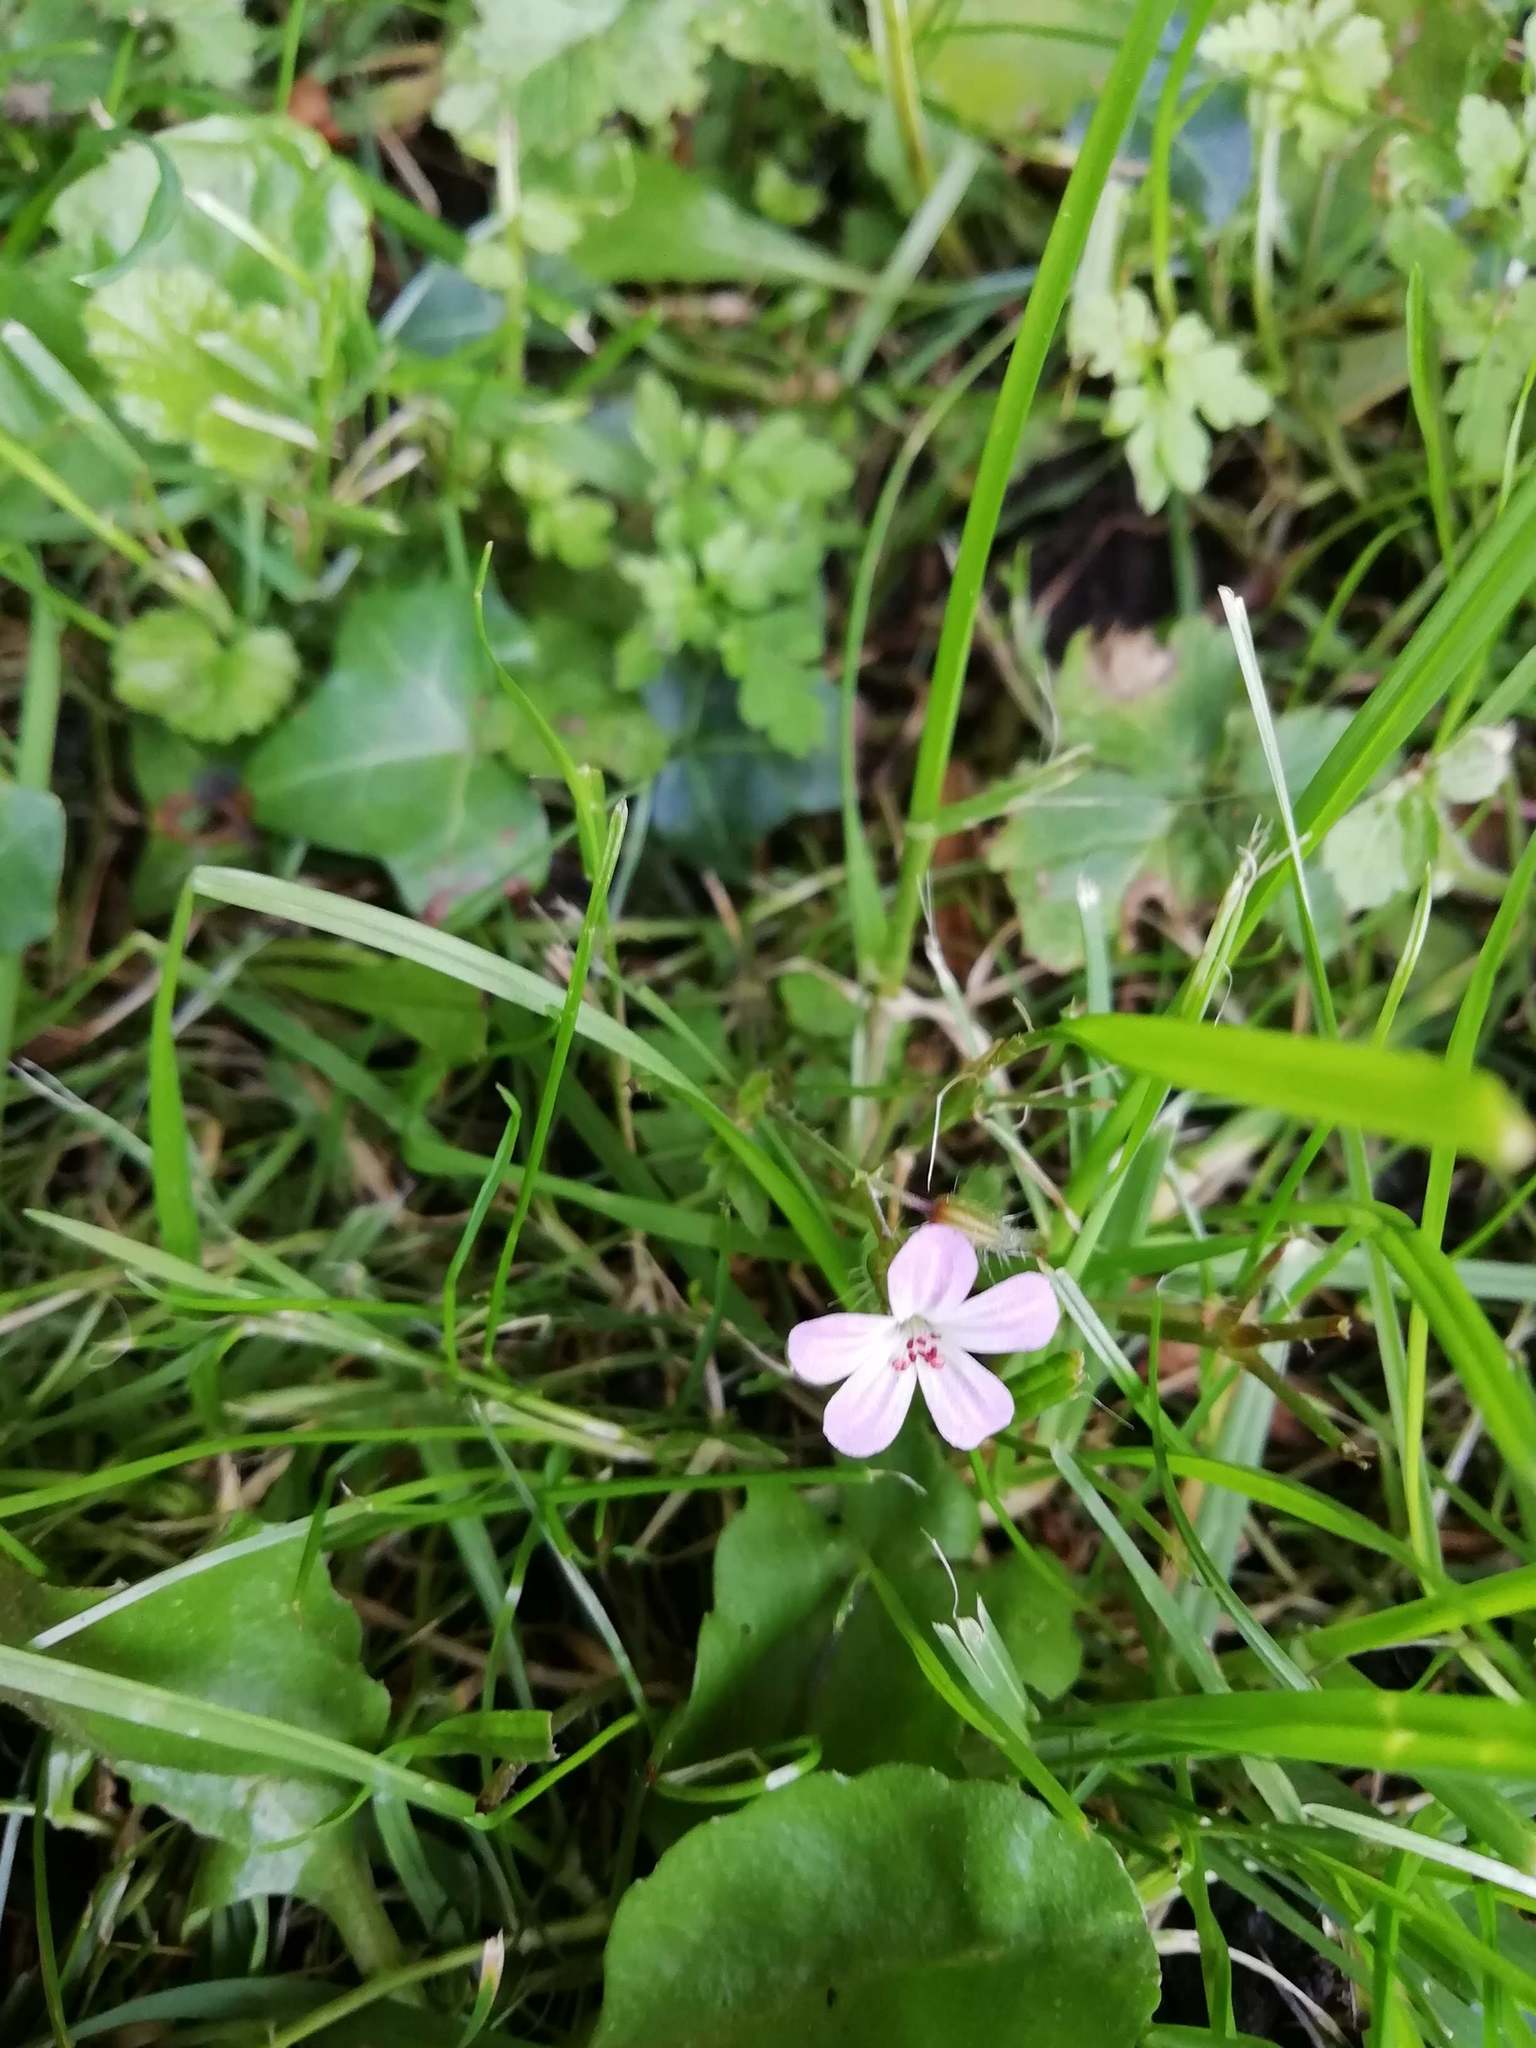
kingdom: Plantae
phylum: Tracheophyta
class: Magnoliopsida
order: Geraniales
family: Geraniaceae
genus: Geranium
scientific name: Geranium robertianum
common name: Herb-robert
